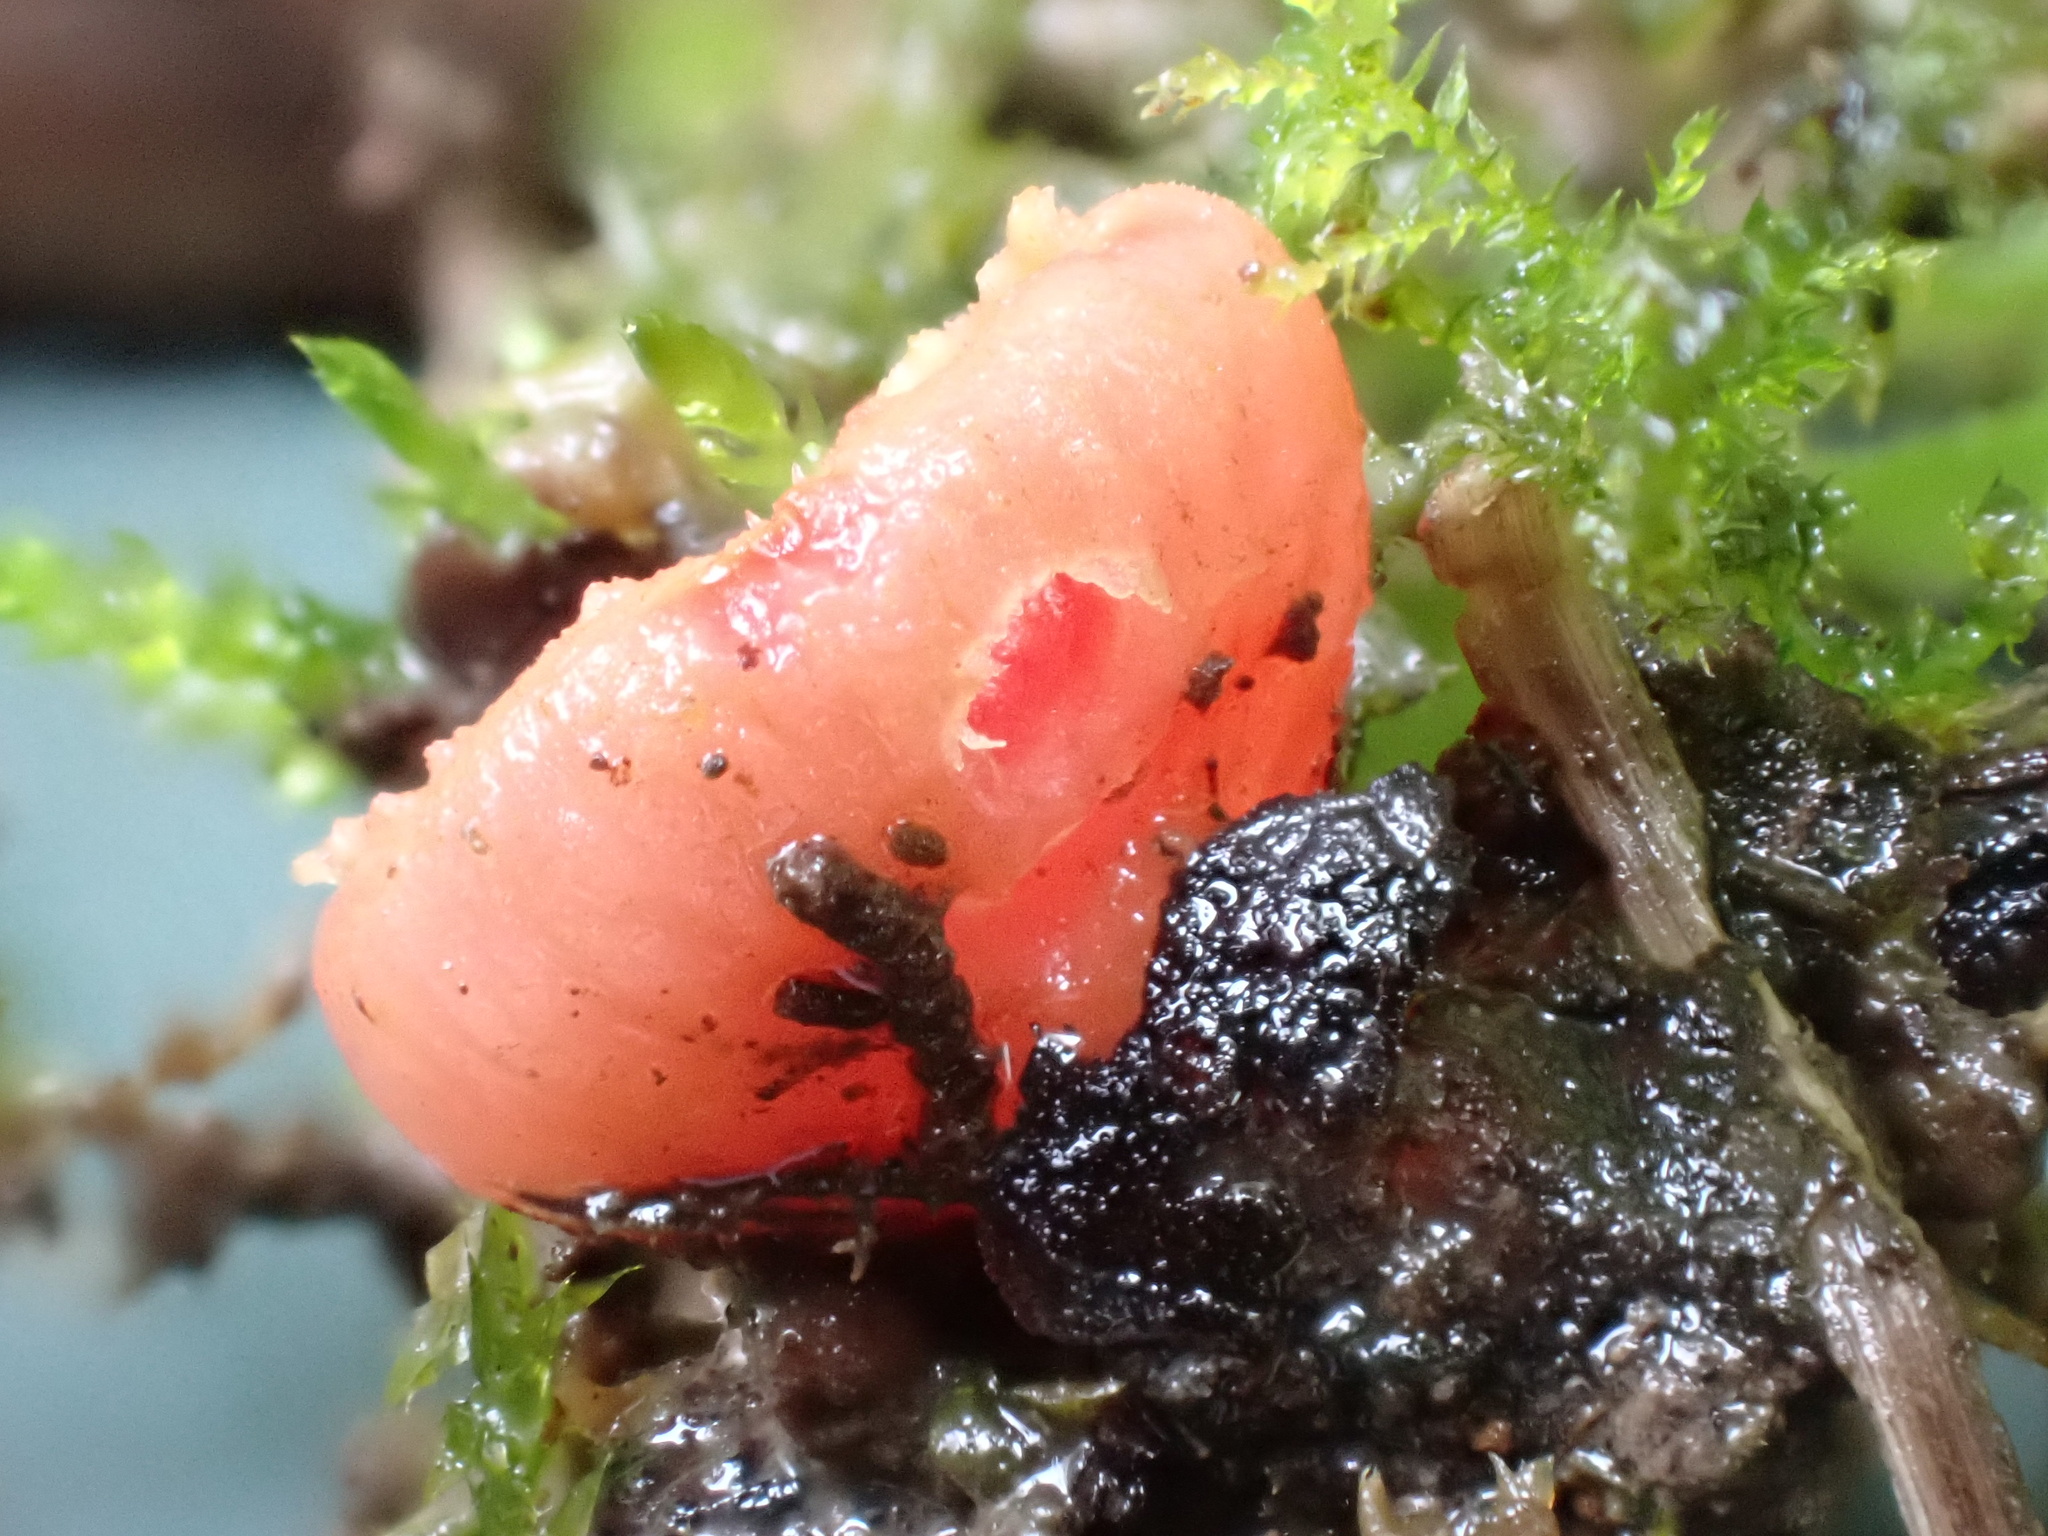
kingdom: Fungi
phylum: Ascomycota
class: Pezizomycetes
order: Pezizales
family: Sarcoscyphaceae
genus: Sarcoscypha
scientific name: Sarcoscypha
